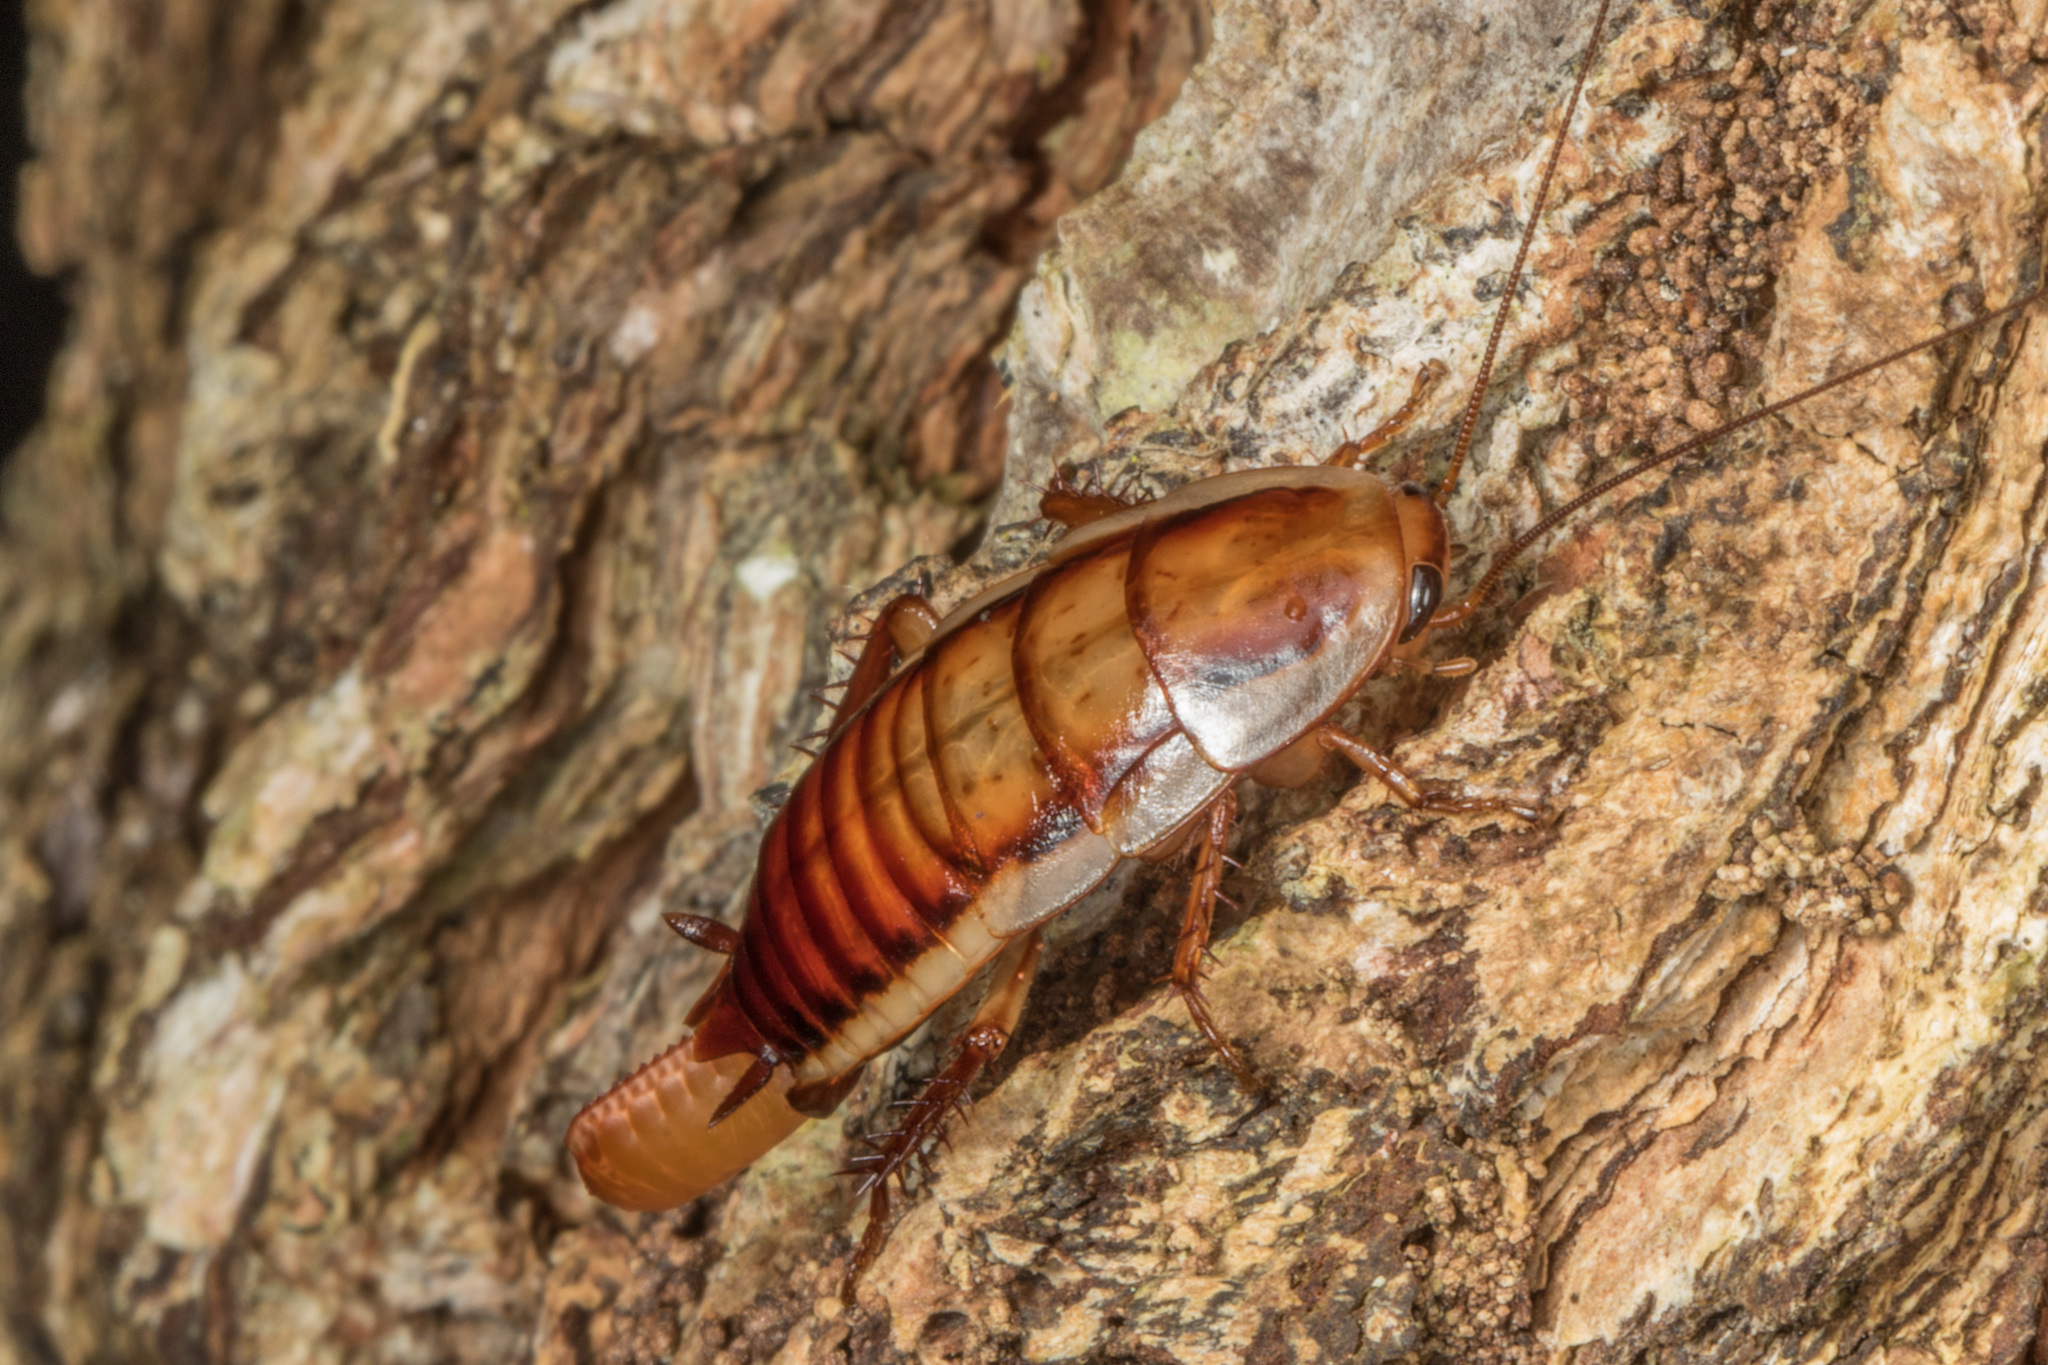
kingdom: Animalia
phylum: Arthropoda
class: Insecta
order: Blattodea
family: Blattidae
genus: Drymaplaneta
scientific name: Drymaplaneta heydeniana
